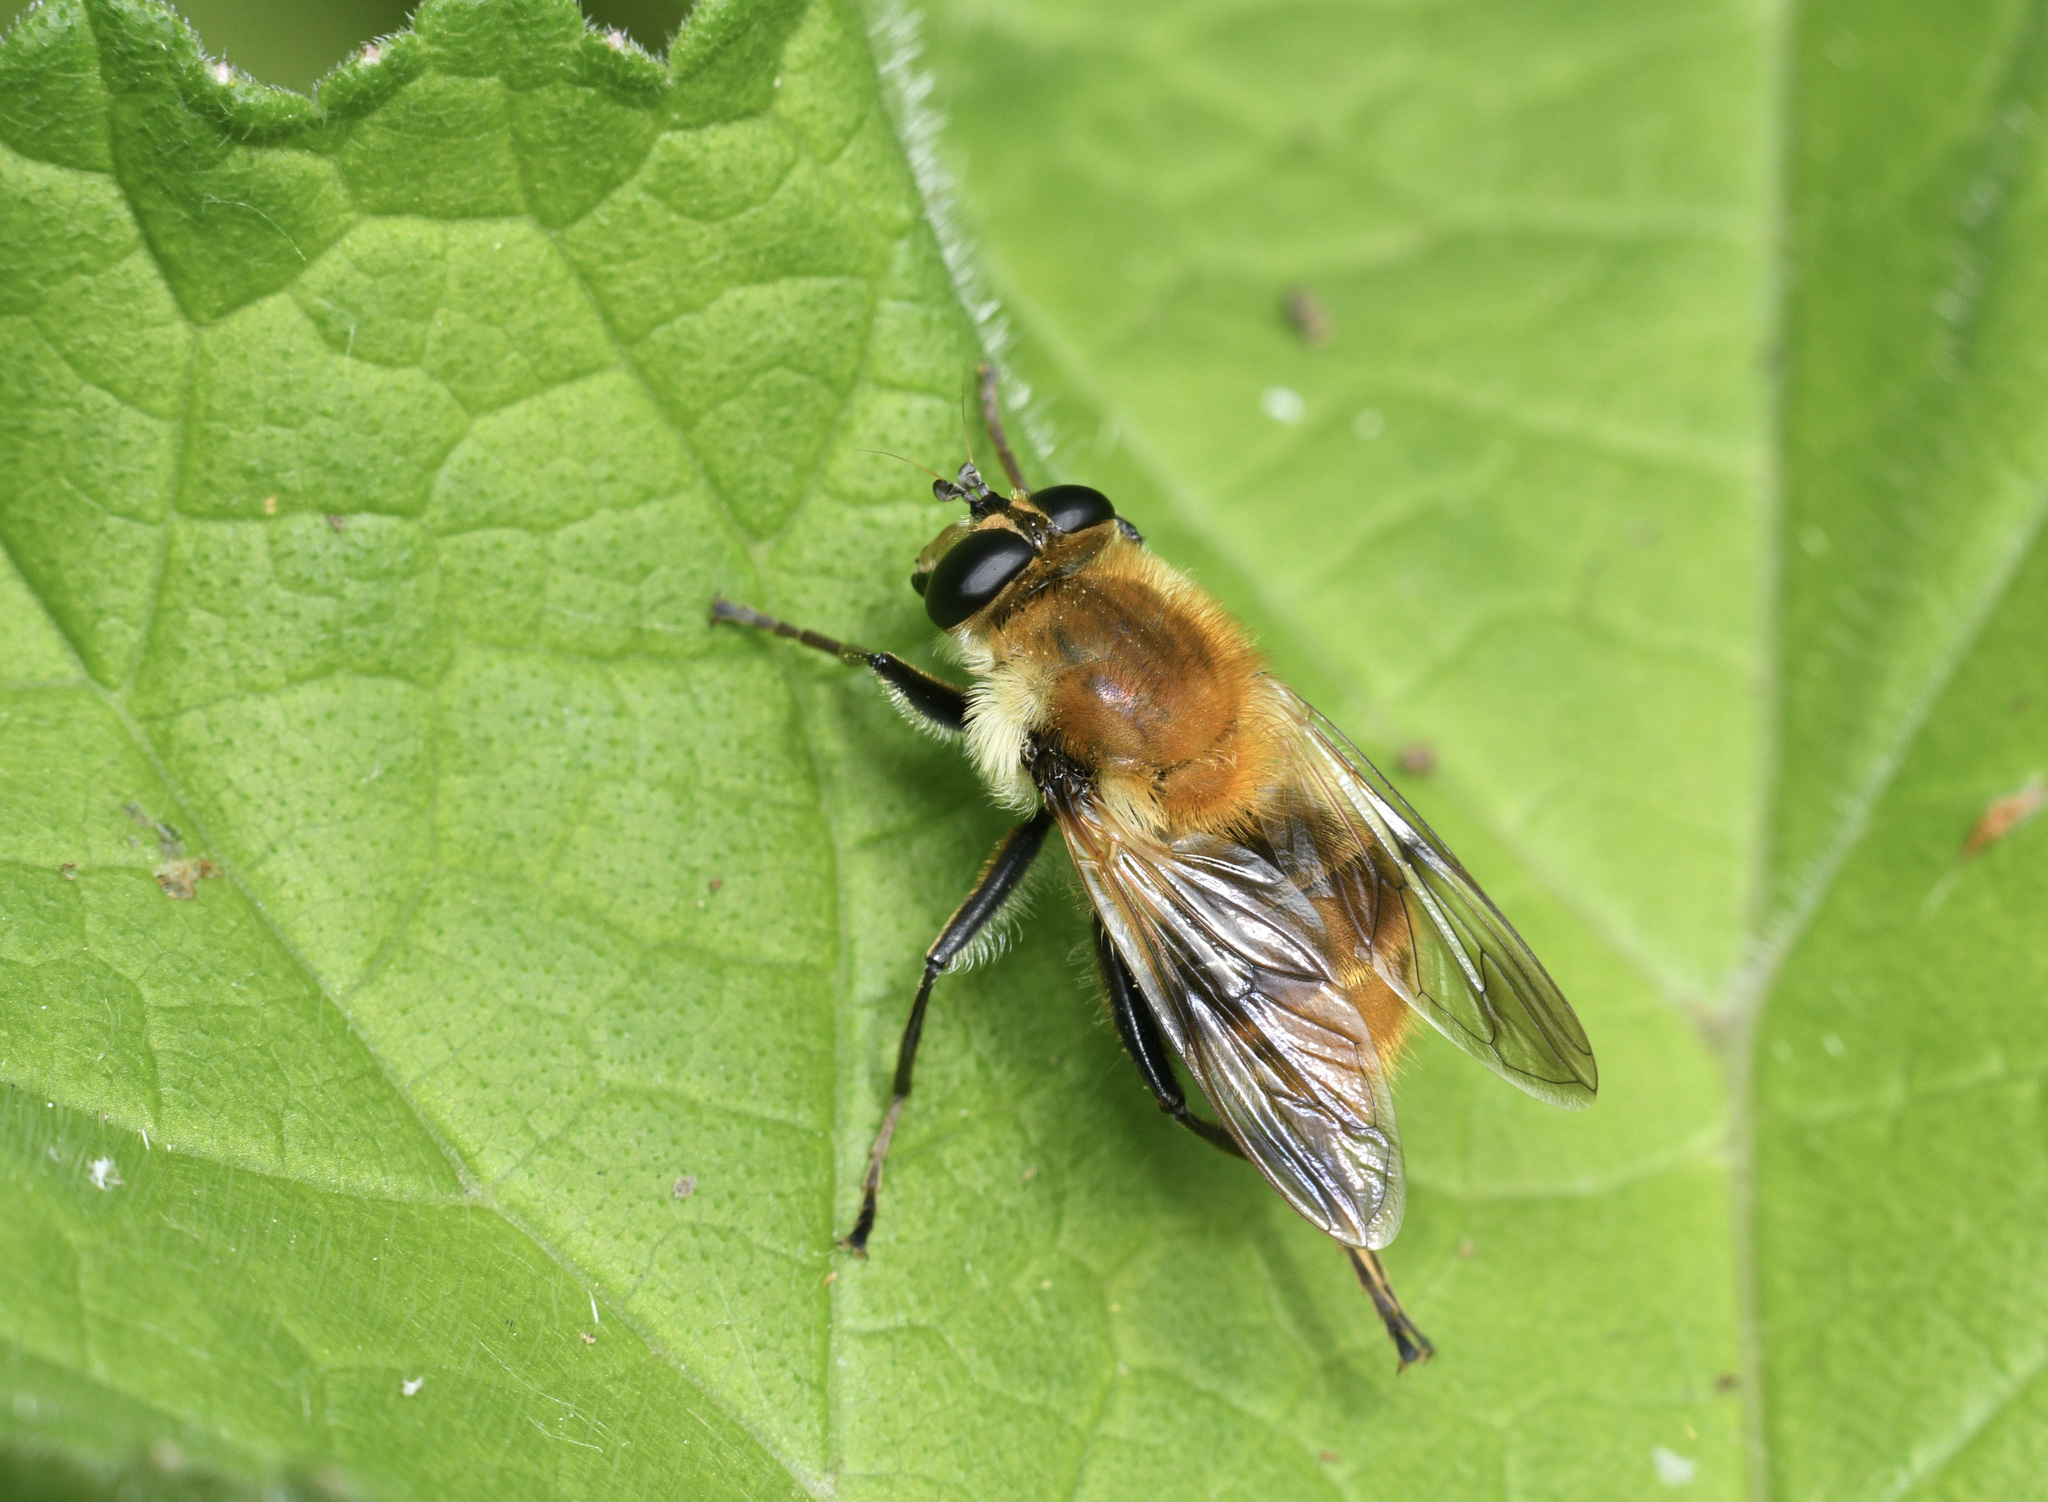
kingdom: Animalia
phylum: Arthropoda
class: Insecta
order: Diptera
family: Syrphidae
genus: Criorhina
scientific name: Criorhina floccosa
